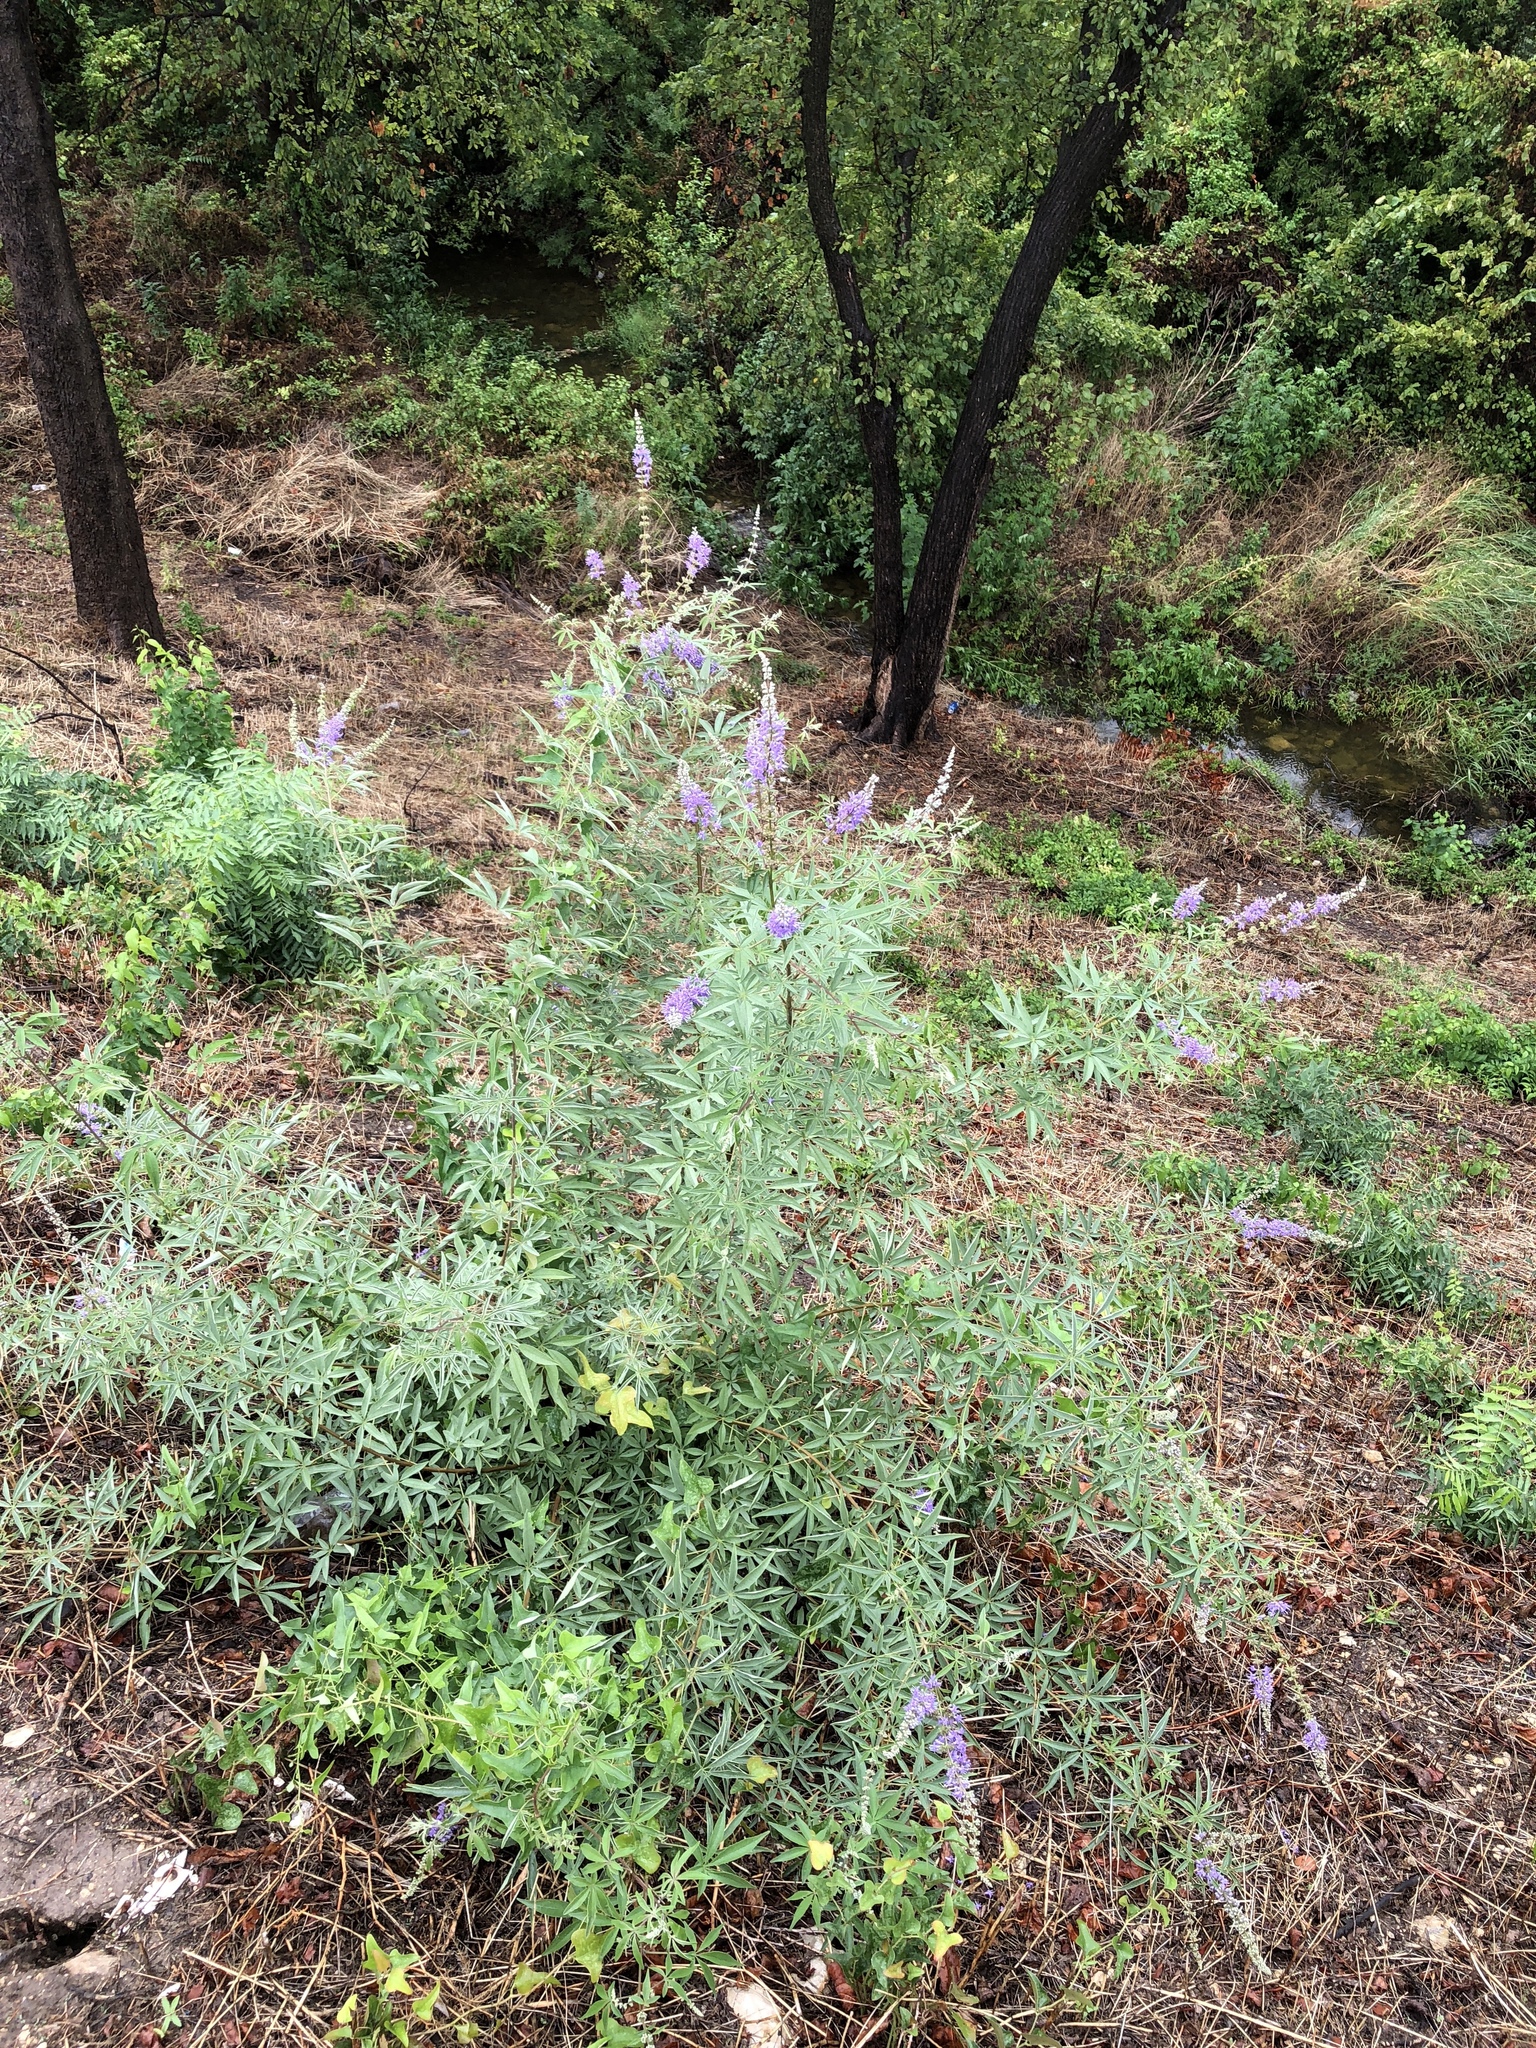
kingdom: Plantae
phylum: Tracheophyta
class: Magnoliopsida
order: Lamiales
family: Lamiaceae
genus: Vitex
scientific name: Vitex agnus-castus
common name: Chasteberry
